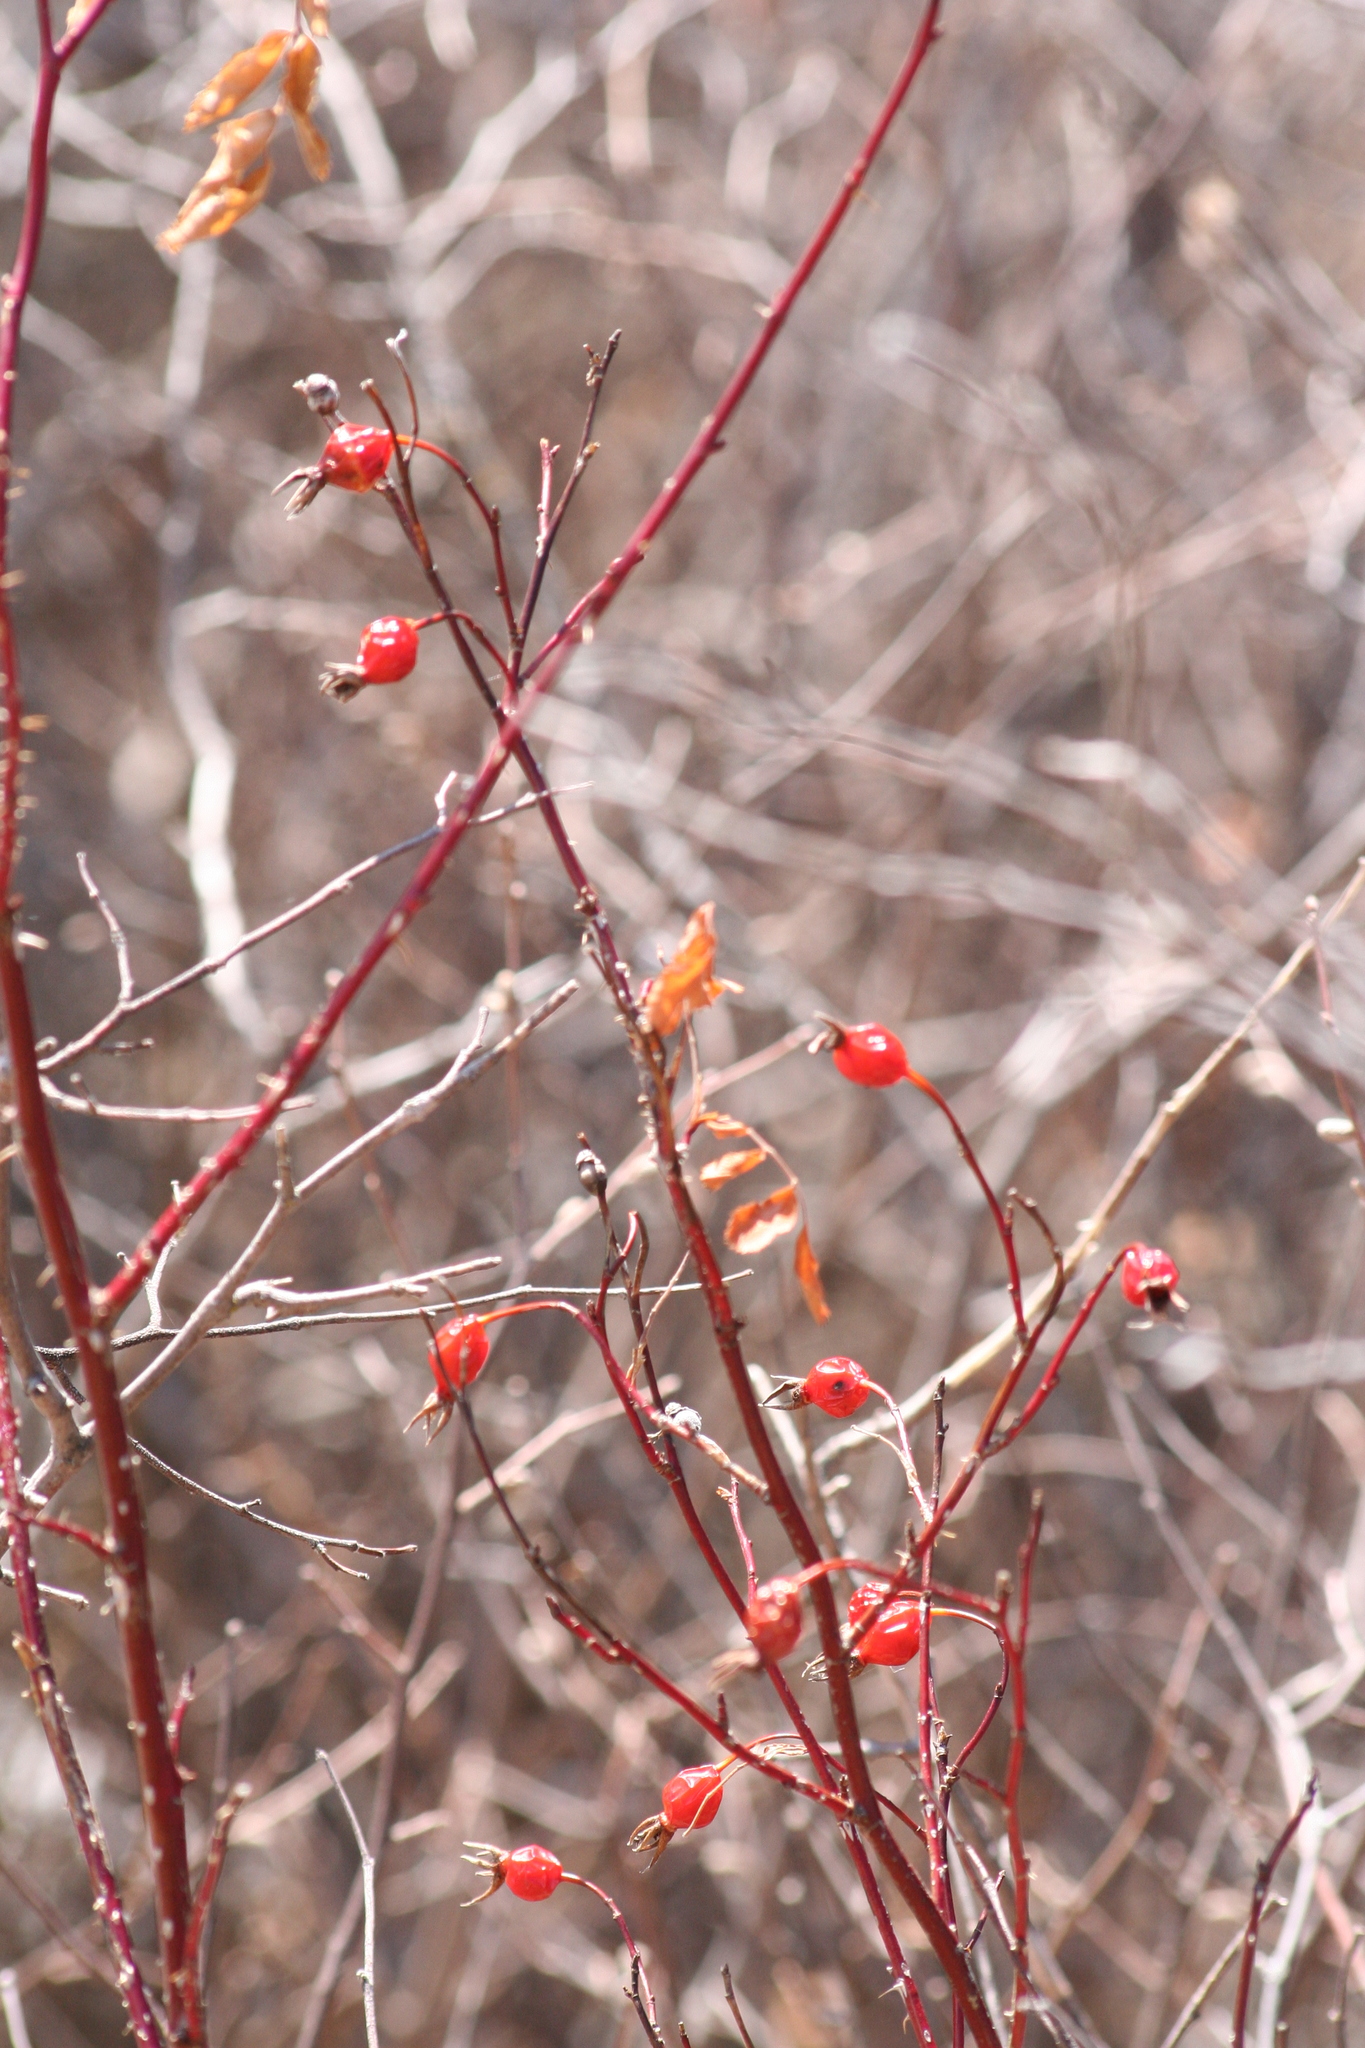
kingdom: Plantae
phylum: Tracheophyta
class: Magnoliopsida
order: Rosales
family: Rosaceae
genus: Rosa
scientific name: Rosa woodsii
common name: Woods's rose
